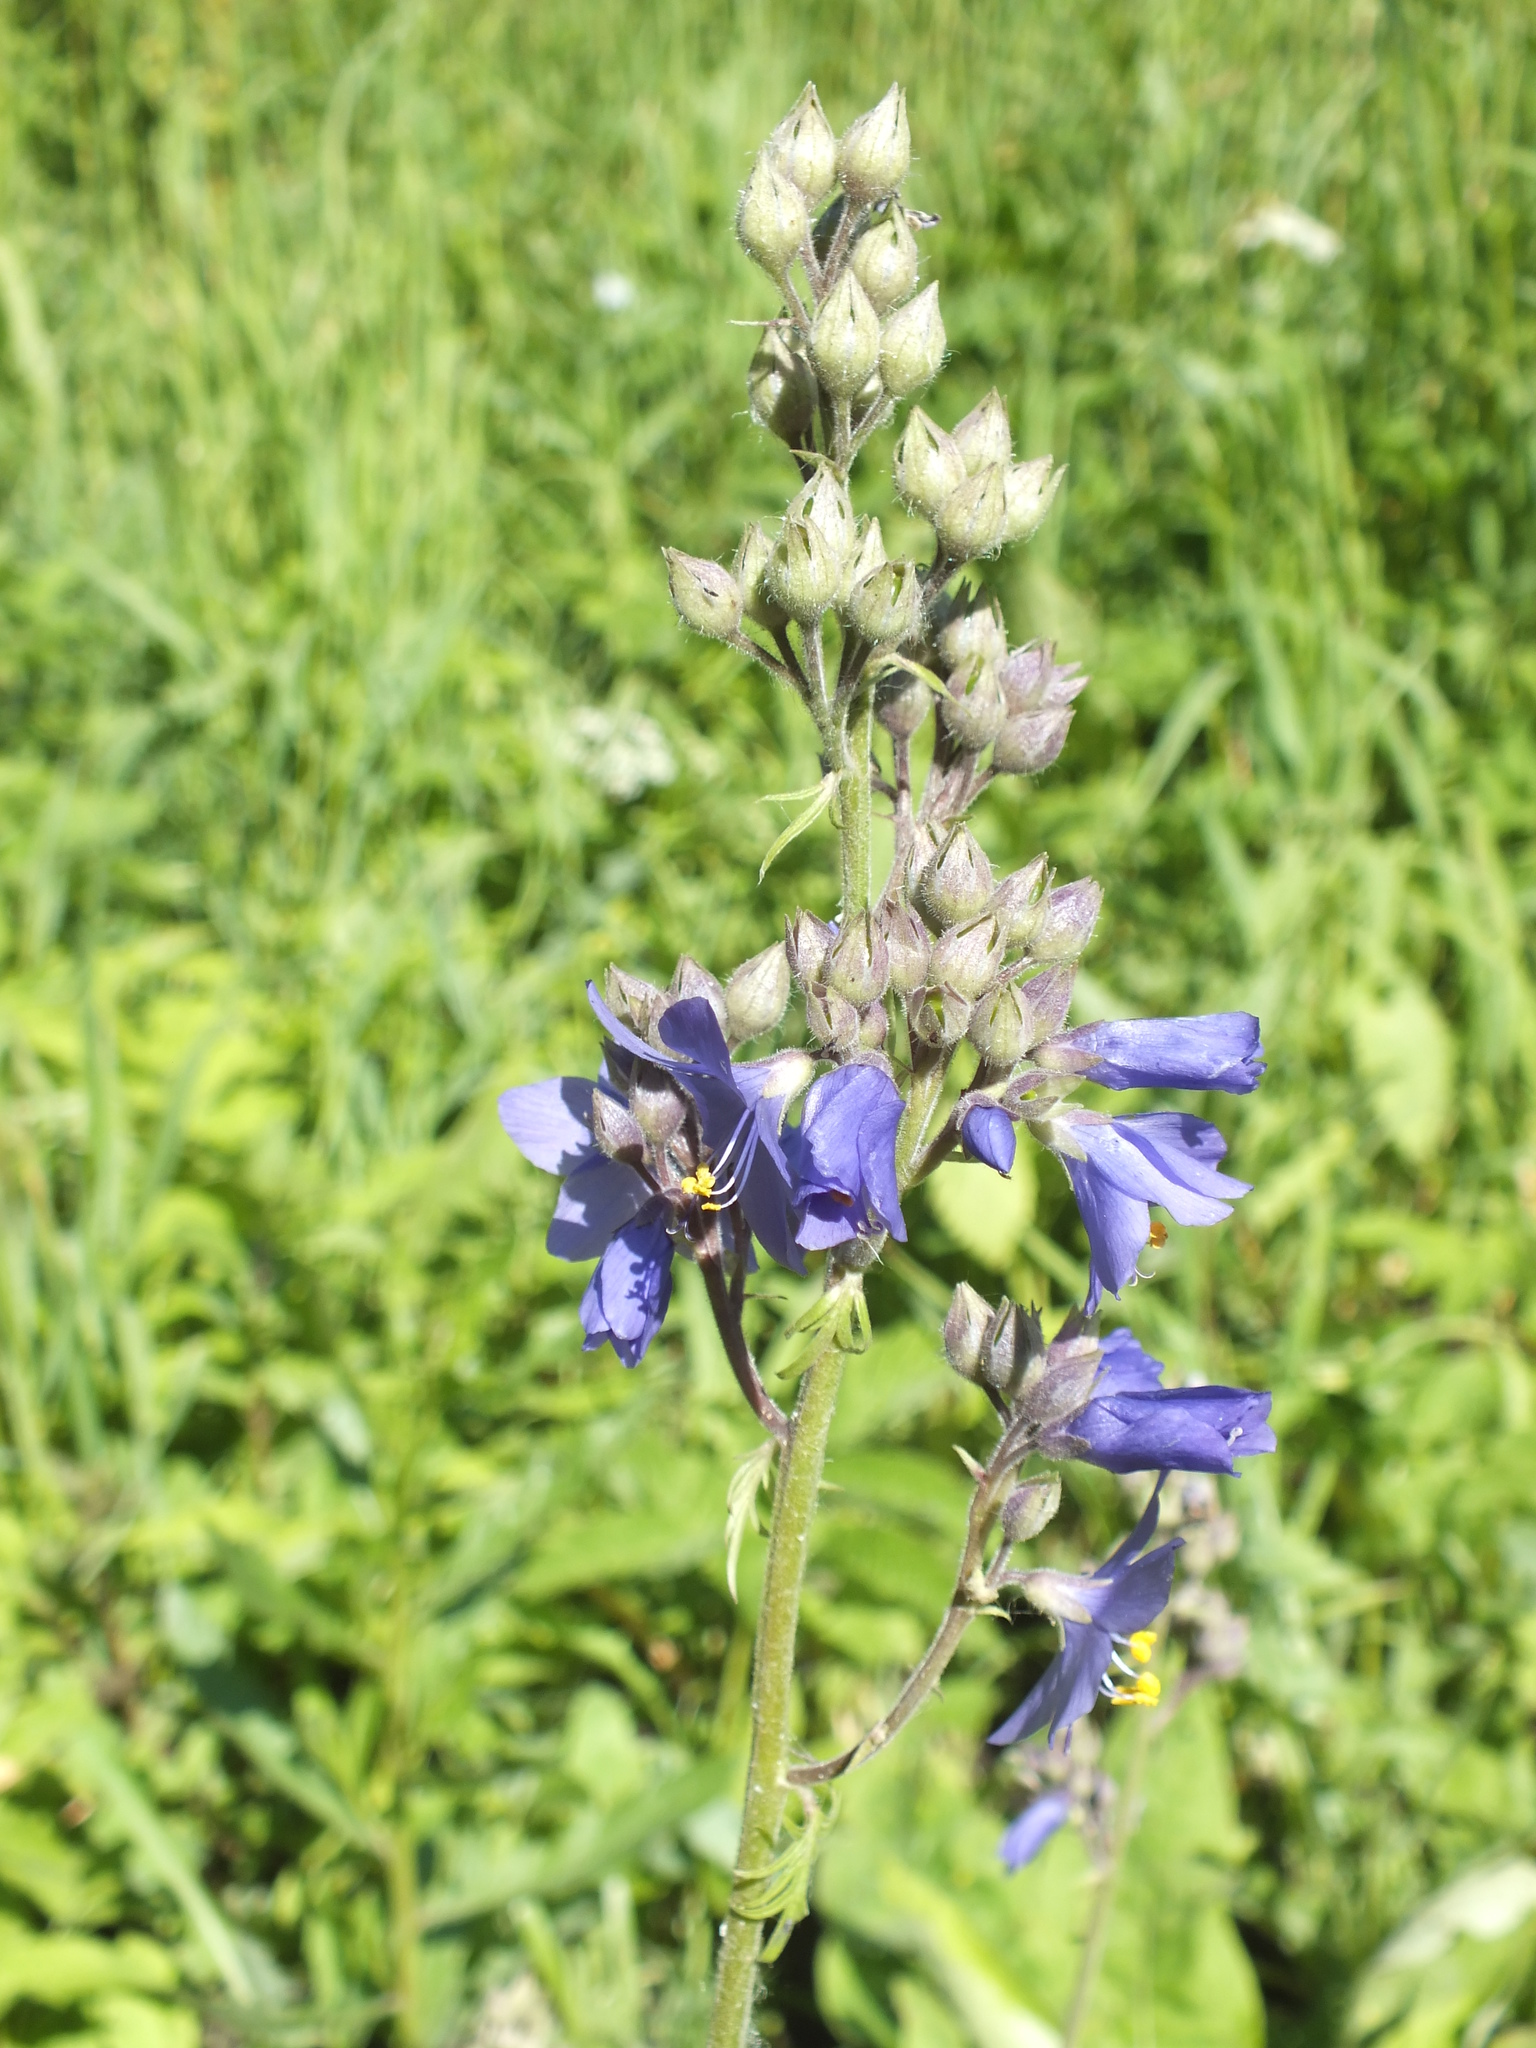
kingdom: Plantae
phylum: Tracheophyta
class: Magnoliopsida
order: Ericales
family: Polemoniaceae
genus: Polemonium
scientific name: Polemonium caeruleum
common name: Jacob's-ladder
